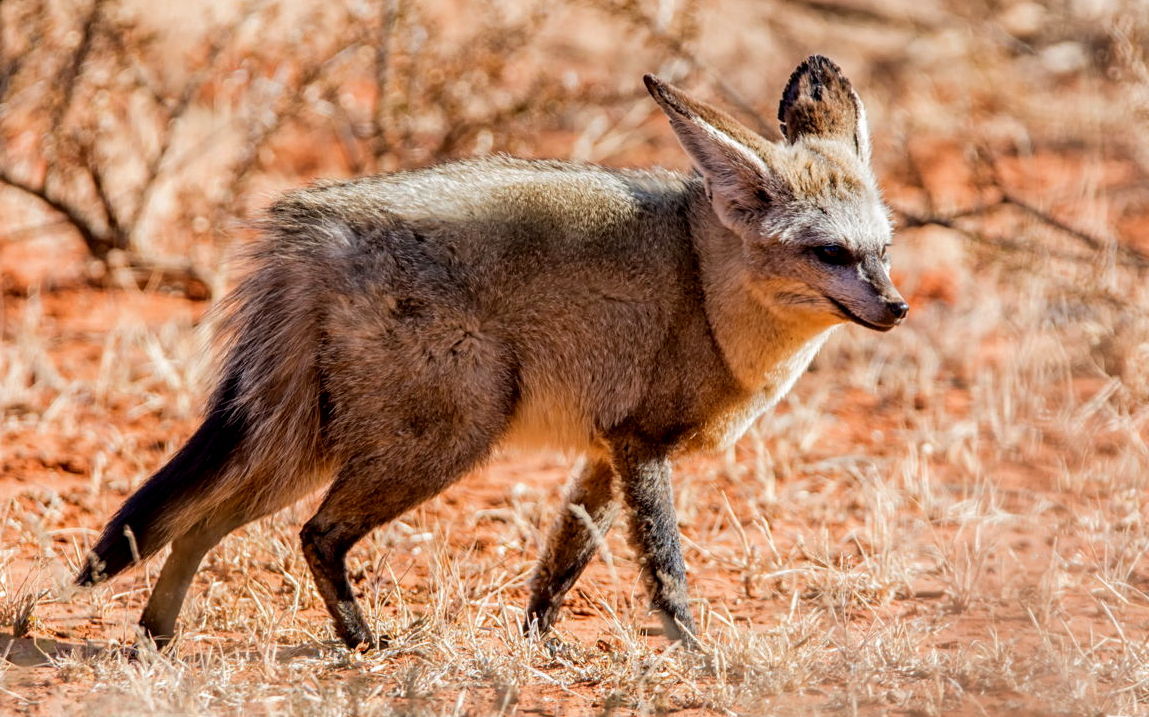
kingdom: Animalia
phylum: Chordata
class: Mammalia
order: Carnivora
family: Canidae
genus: Otocyon
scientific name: Otocyon megalotis
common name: Bat-eared fox
